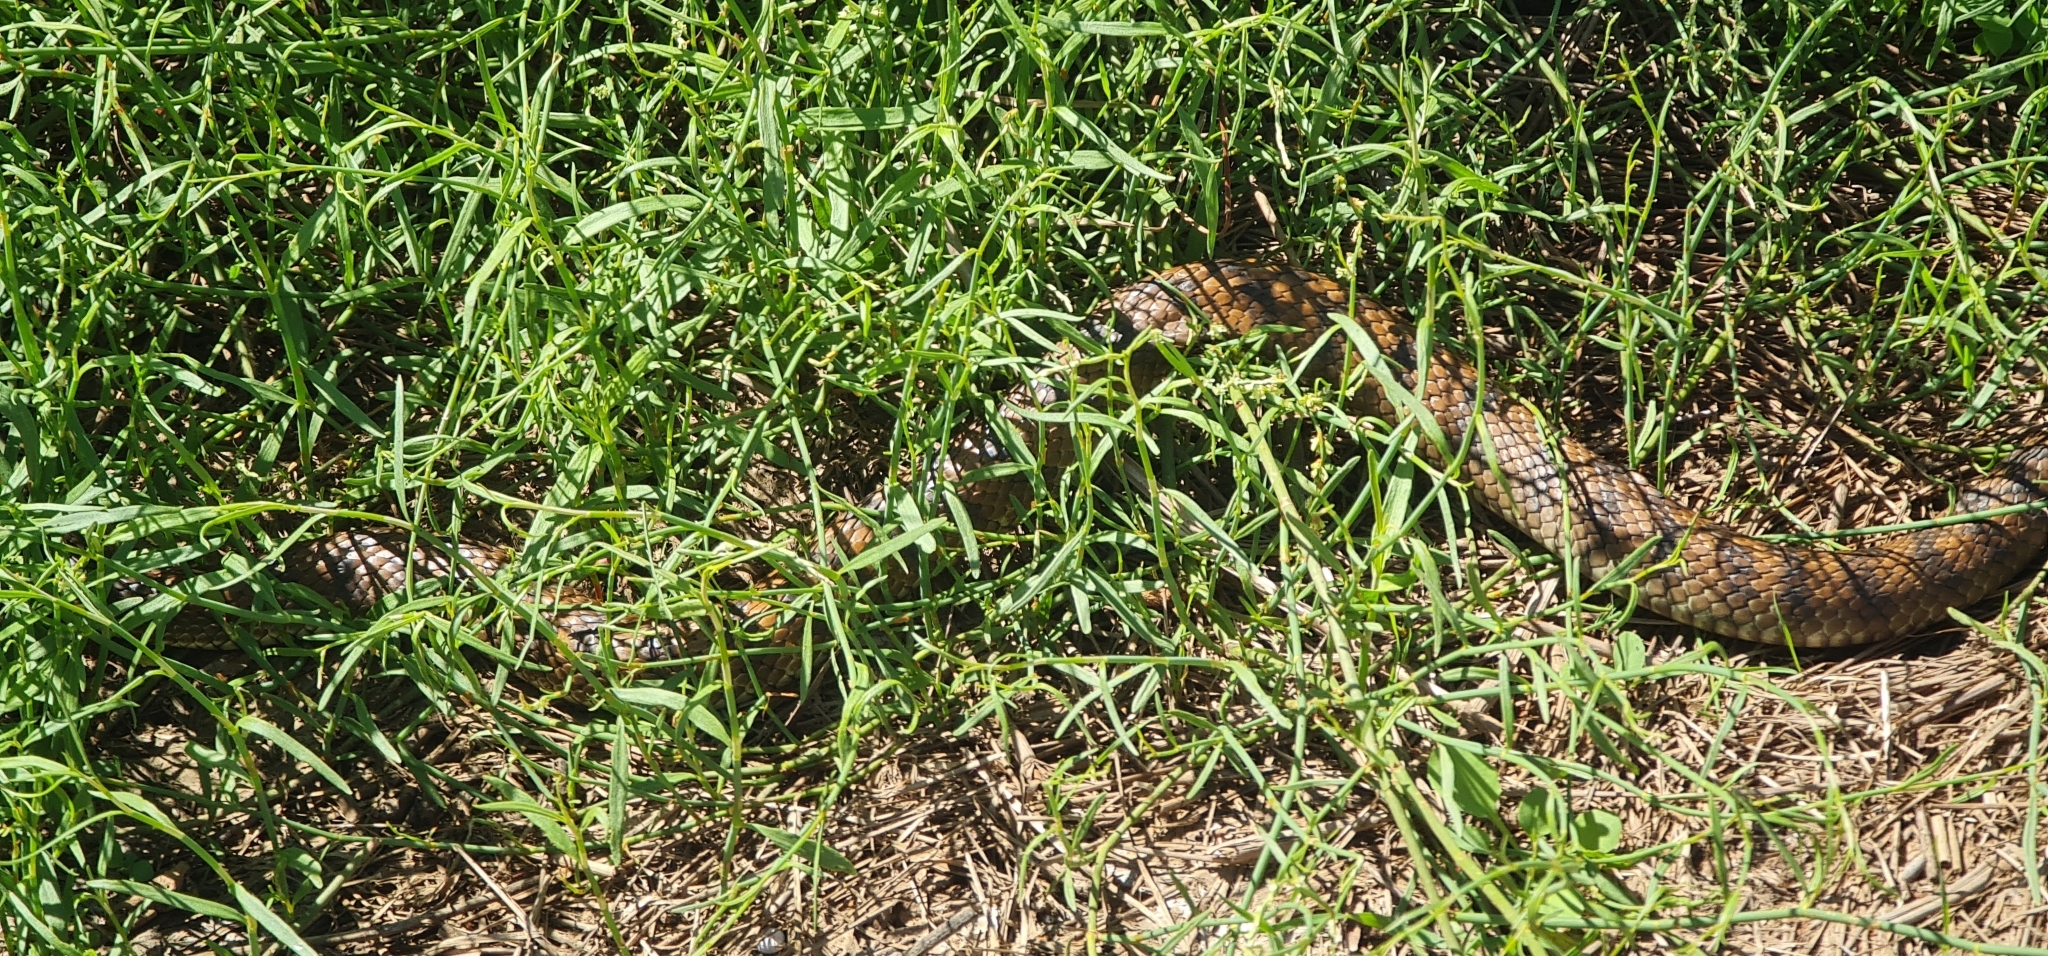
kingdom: Animalia
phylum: Chordata
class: Squamata
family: Elapidae
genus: Notechis
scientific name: Notechis scutatus
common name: Mainland tiger snake
